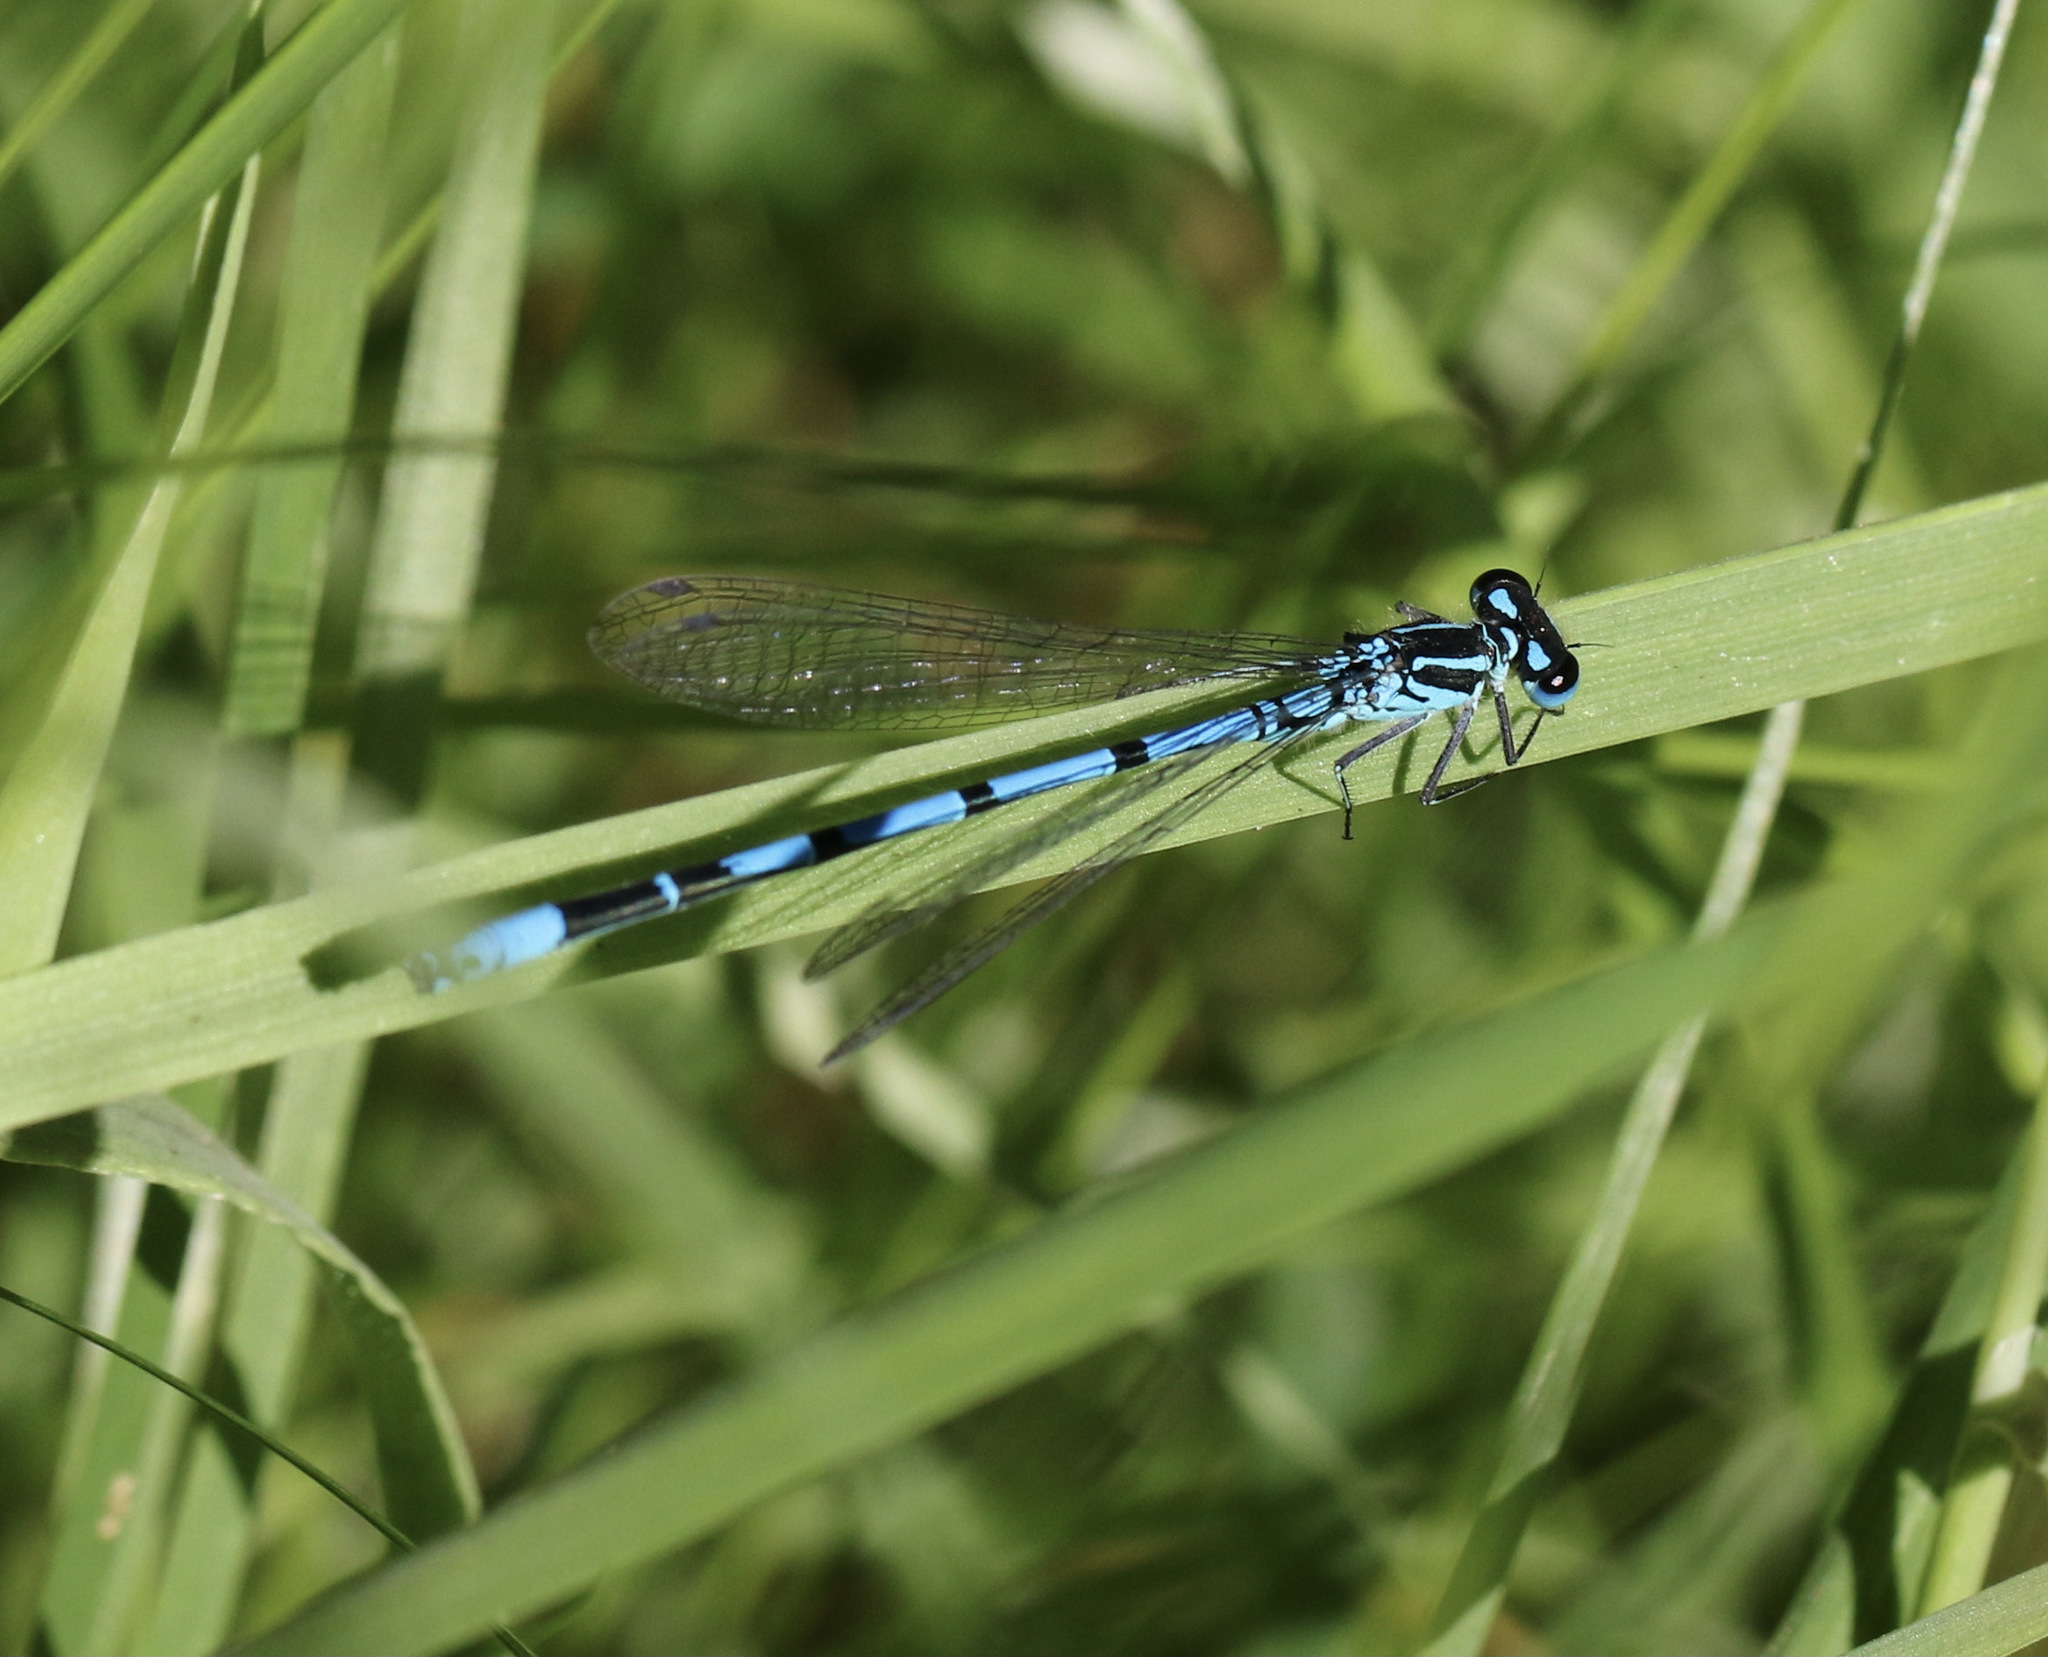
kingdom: Animalia
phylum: Arthropoda
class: Insecta
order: Odonata
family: Coenagrionidae
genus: Coenagrion
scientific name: Coenagrion puella
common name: Azure damselfly
